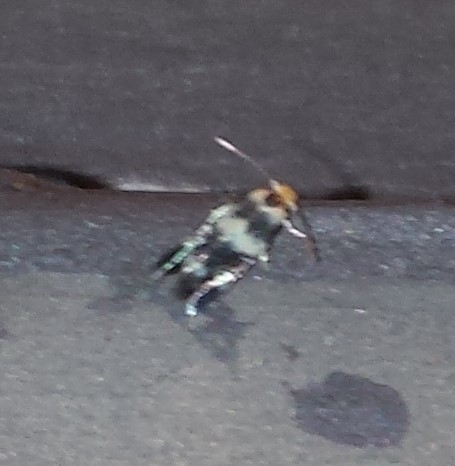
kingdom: Animalia
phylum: Arthropoda
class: Insecta
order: Lepidoptera
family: Nepticulidae
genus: Etainia
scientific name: Etainia sericopeza
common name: Leafminer
